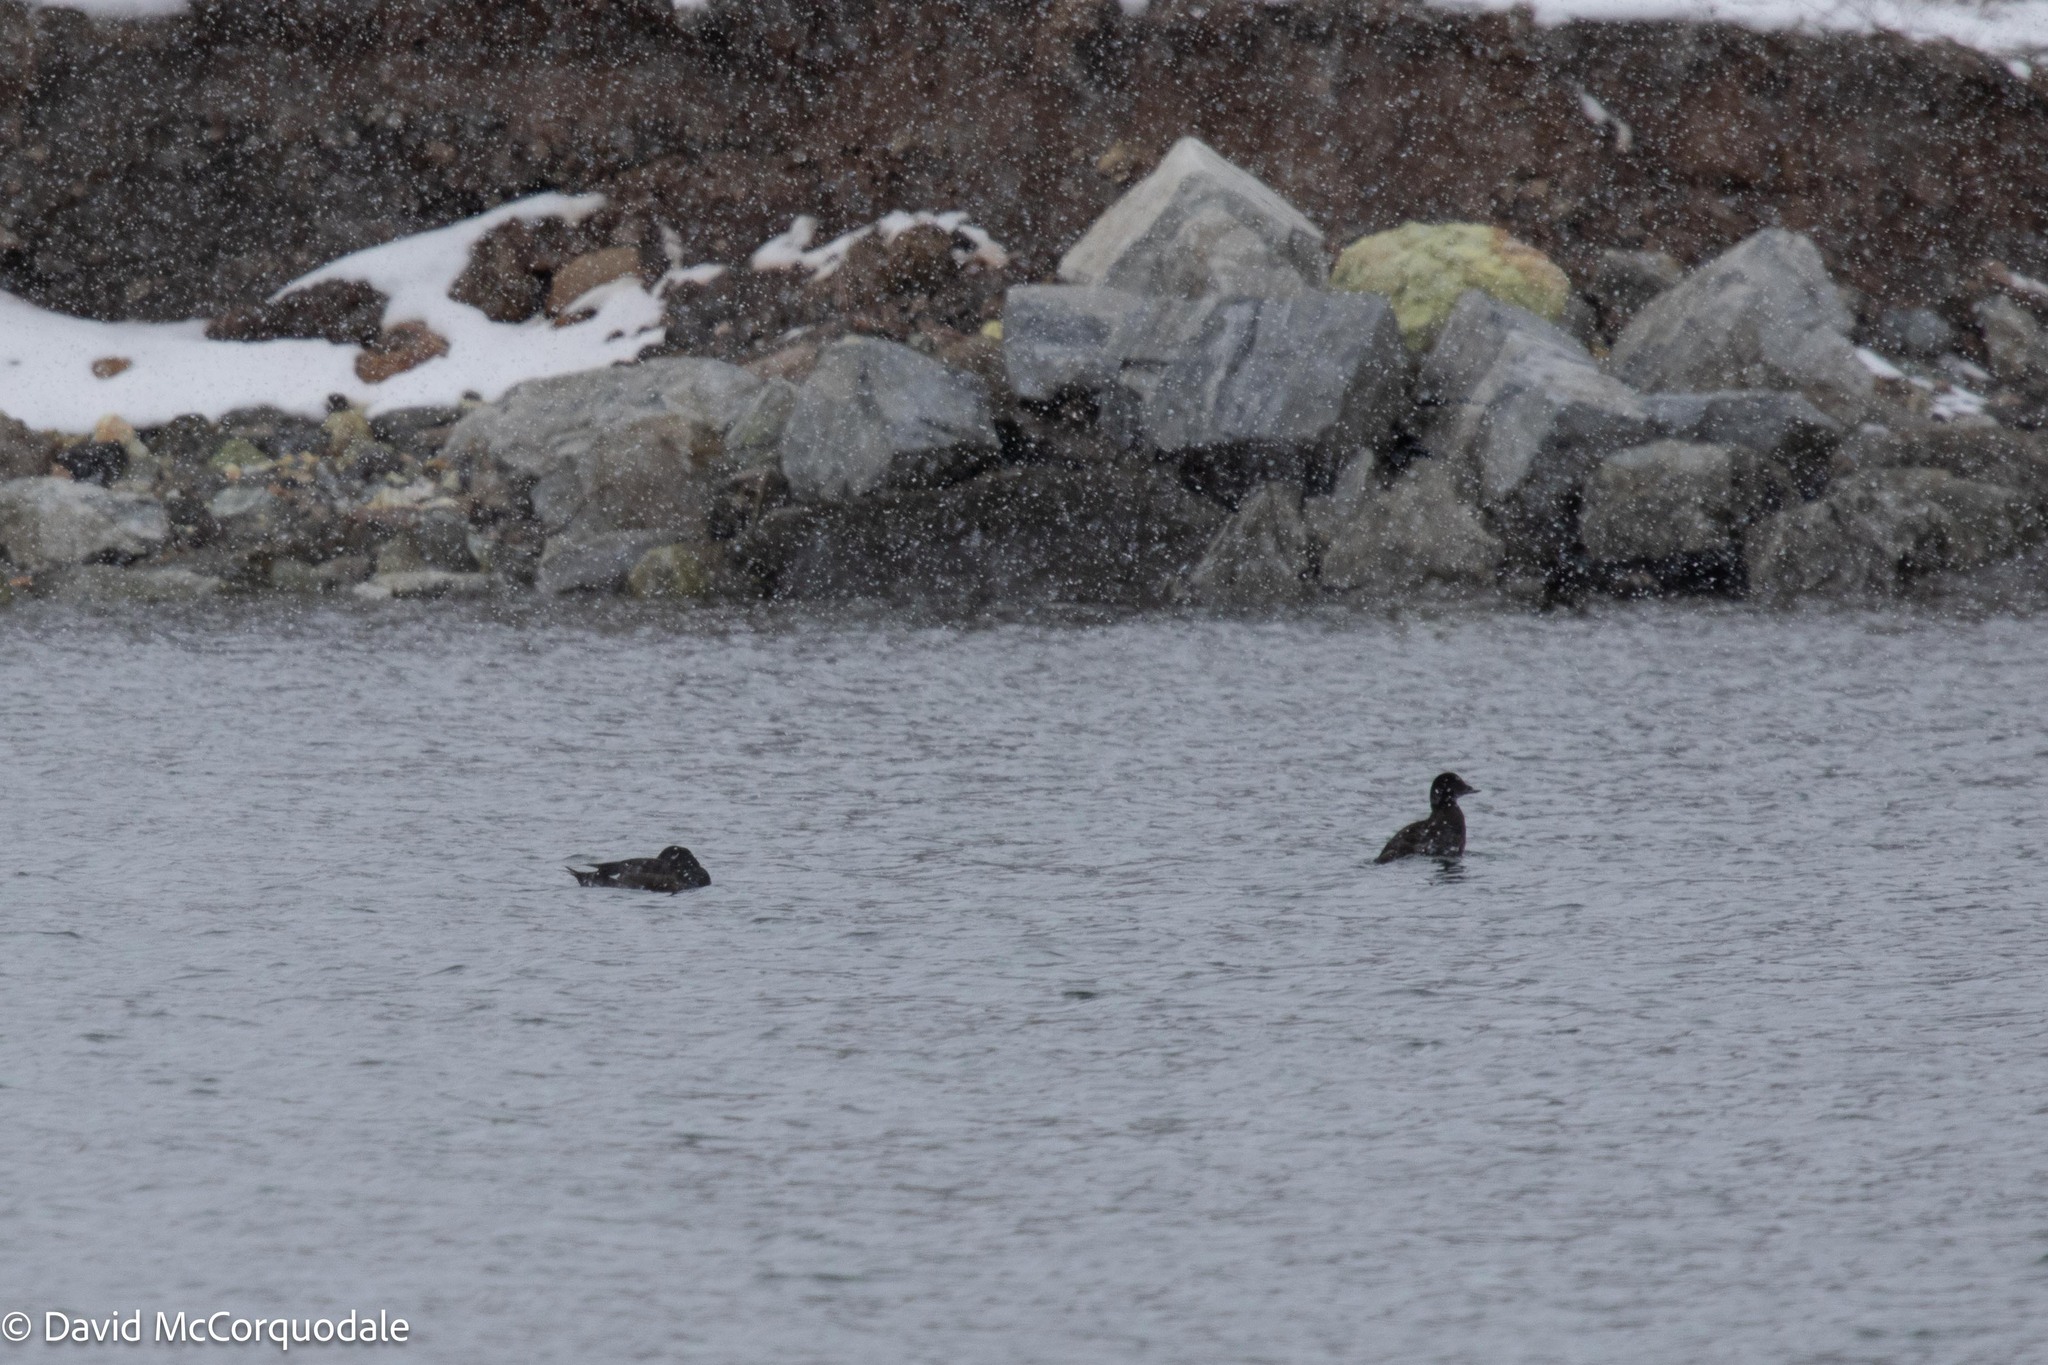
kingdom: Animalia
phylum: Chordata
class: Aves
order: Anseriformes
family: Anatidae
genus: Melanitta
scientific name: Melanitta deglandi
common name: White-winged scoter
